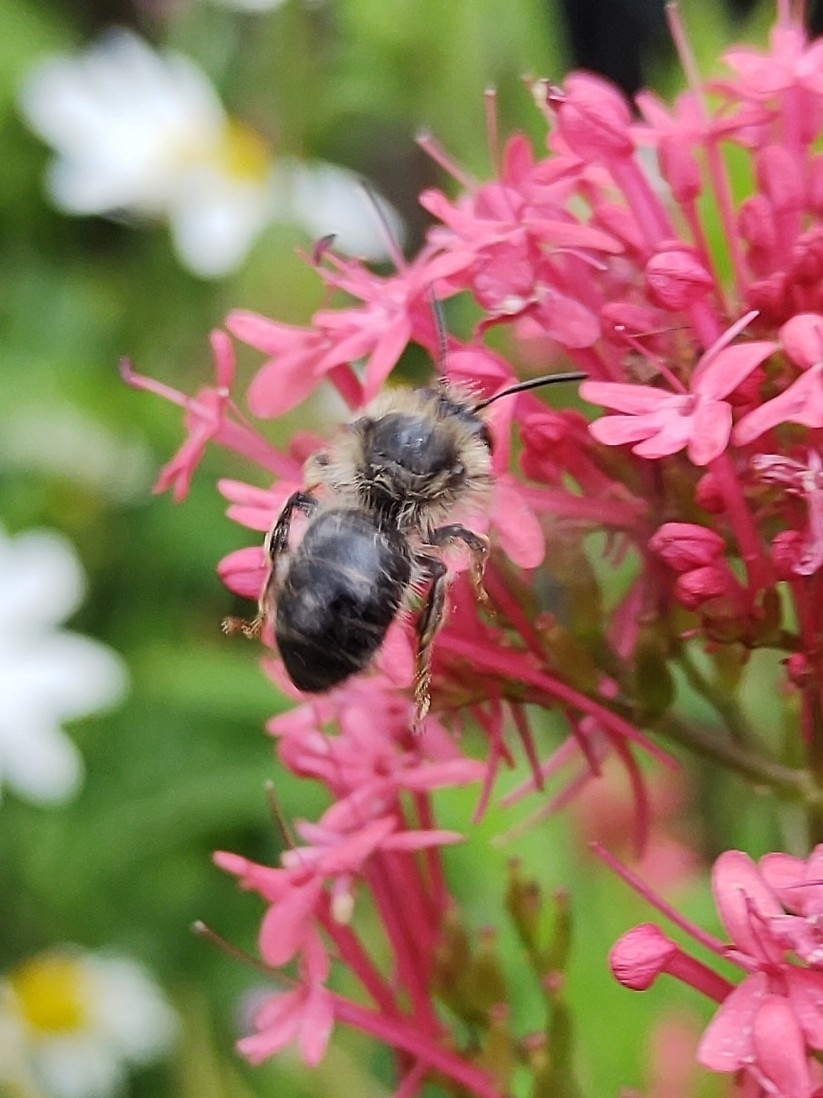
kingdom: Animalia
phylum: Arthropoda
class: Insecta
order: Hymenoptera
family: Apidae
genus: Anthophora
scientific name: Anthophora furcata
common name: Fork-tailed flower bee
